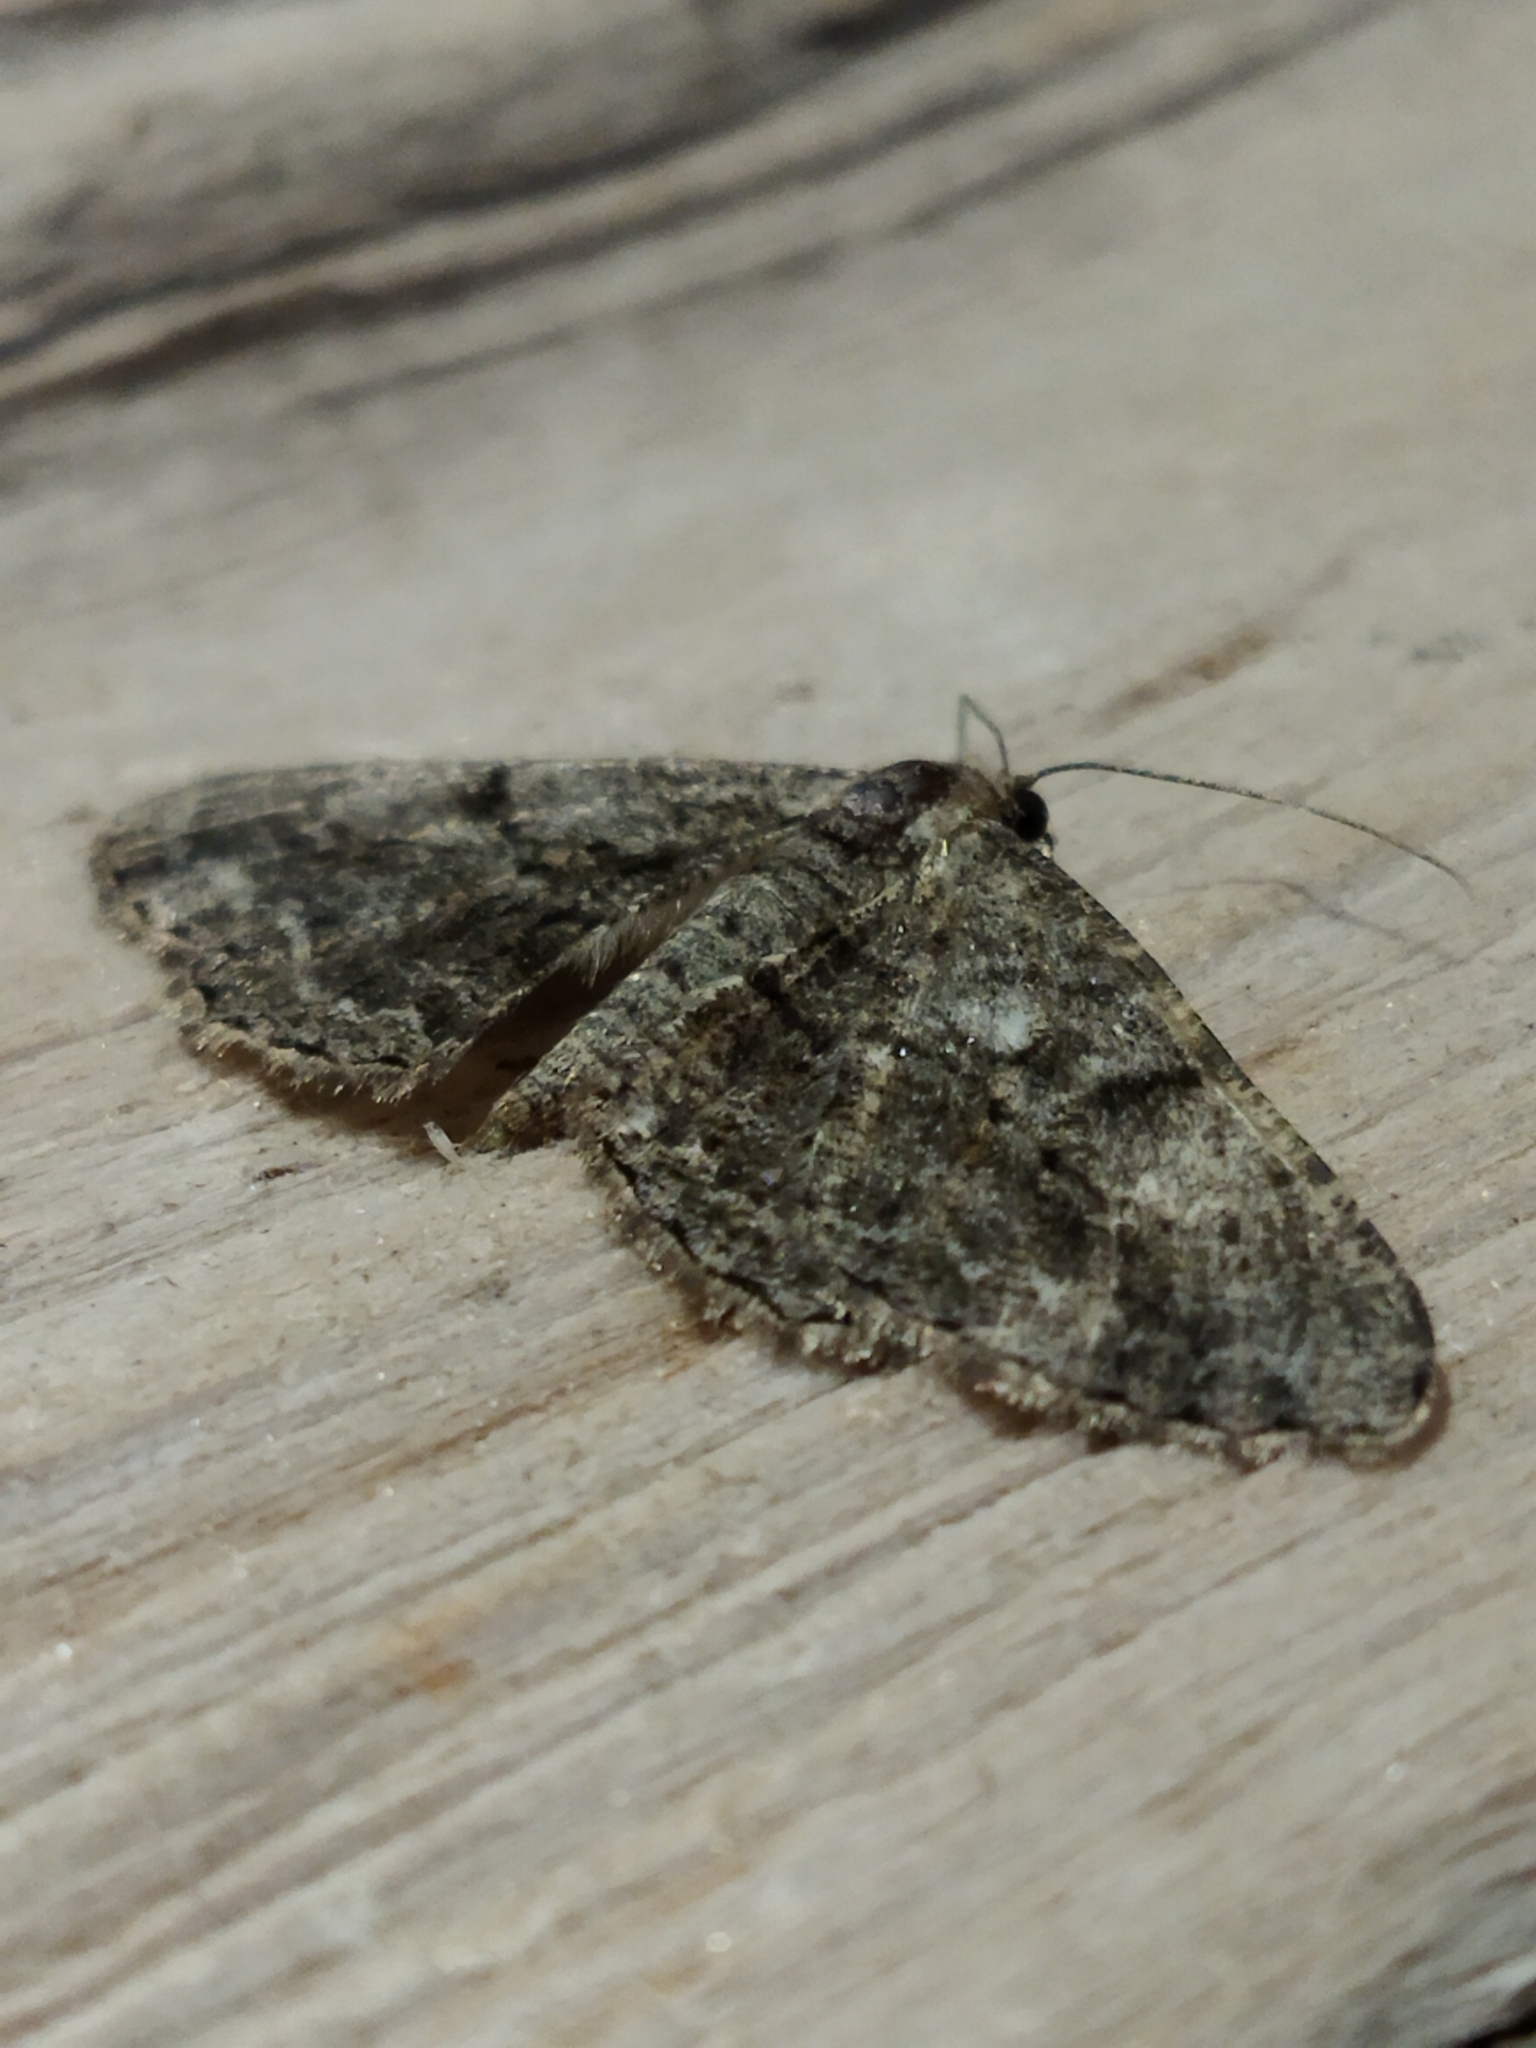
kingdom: Animalia
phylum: Arthropoda
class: Insecta
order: Lepidoptera
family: Geometridae
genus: Peribatodes
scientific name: Peribatodes rhomboidaria
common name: Willow beauty
